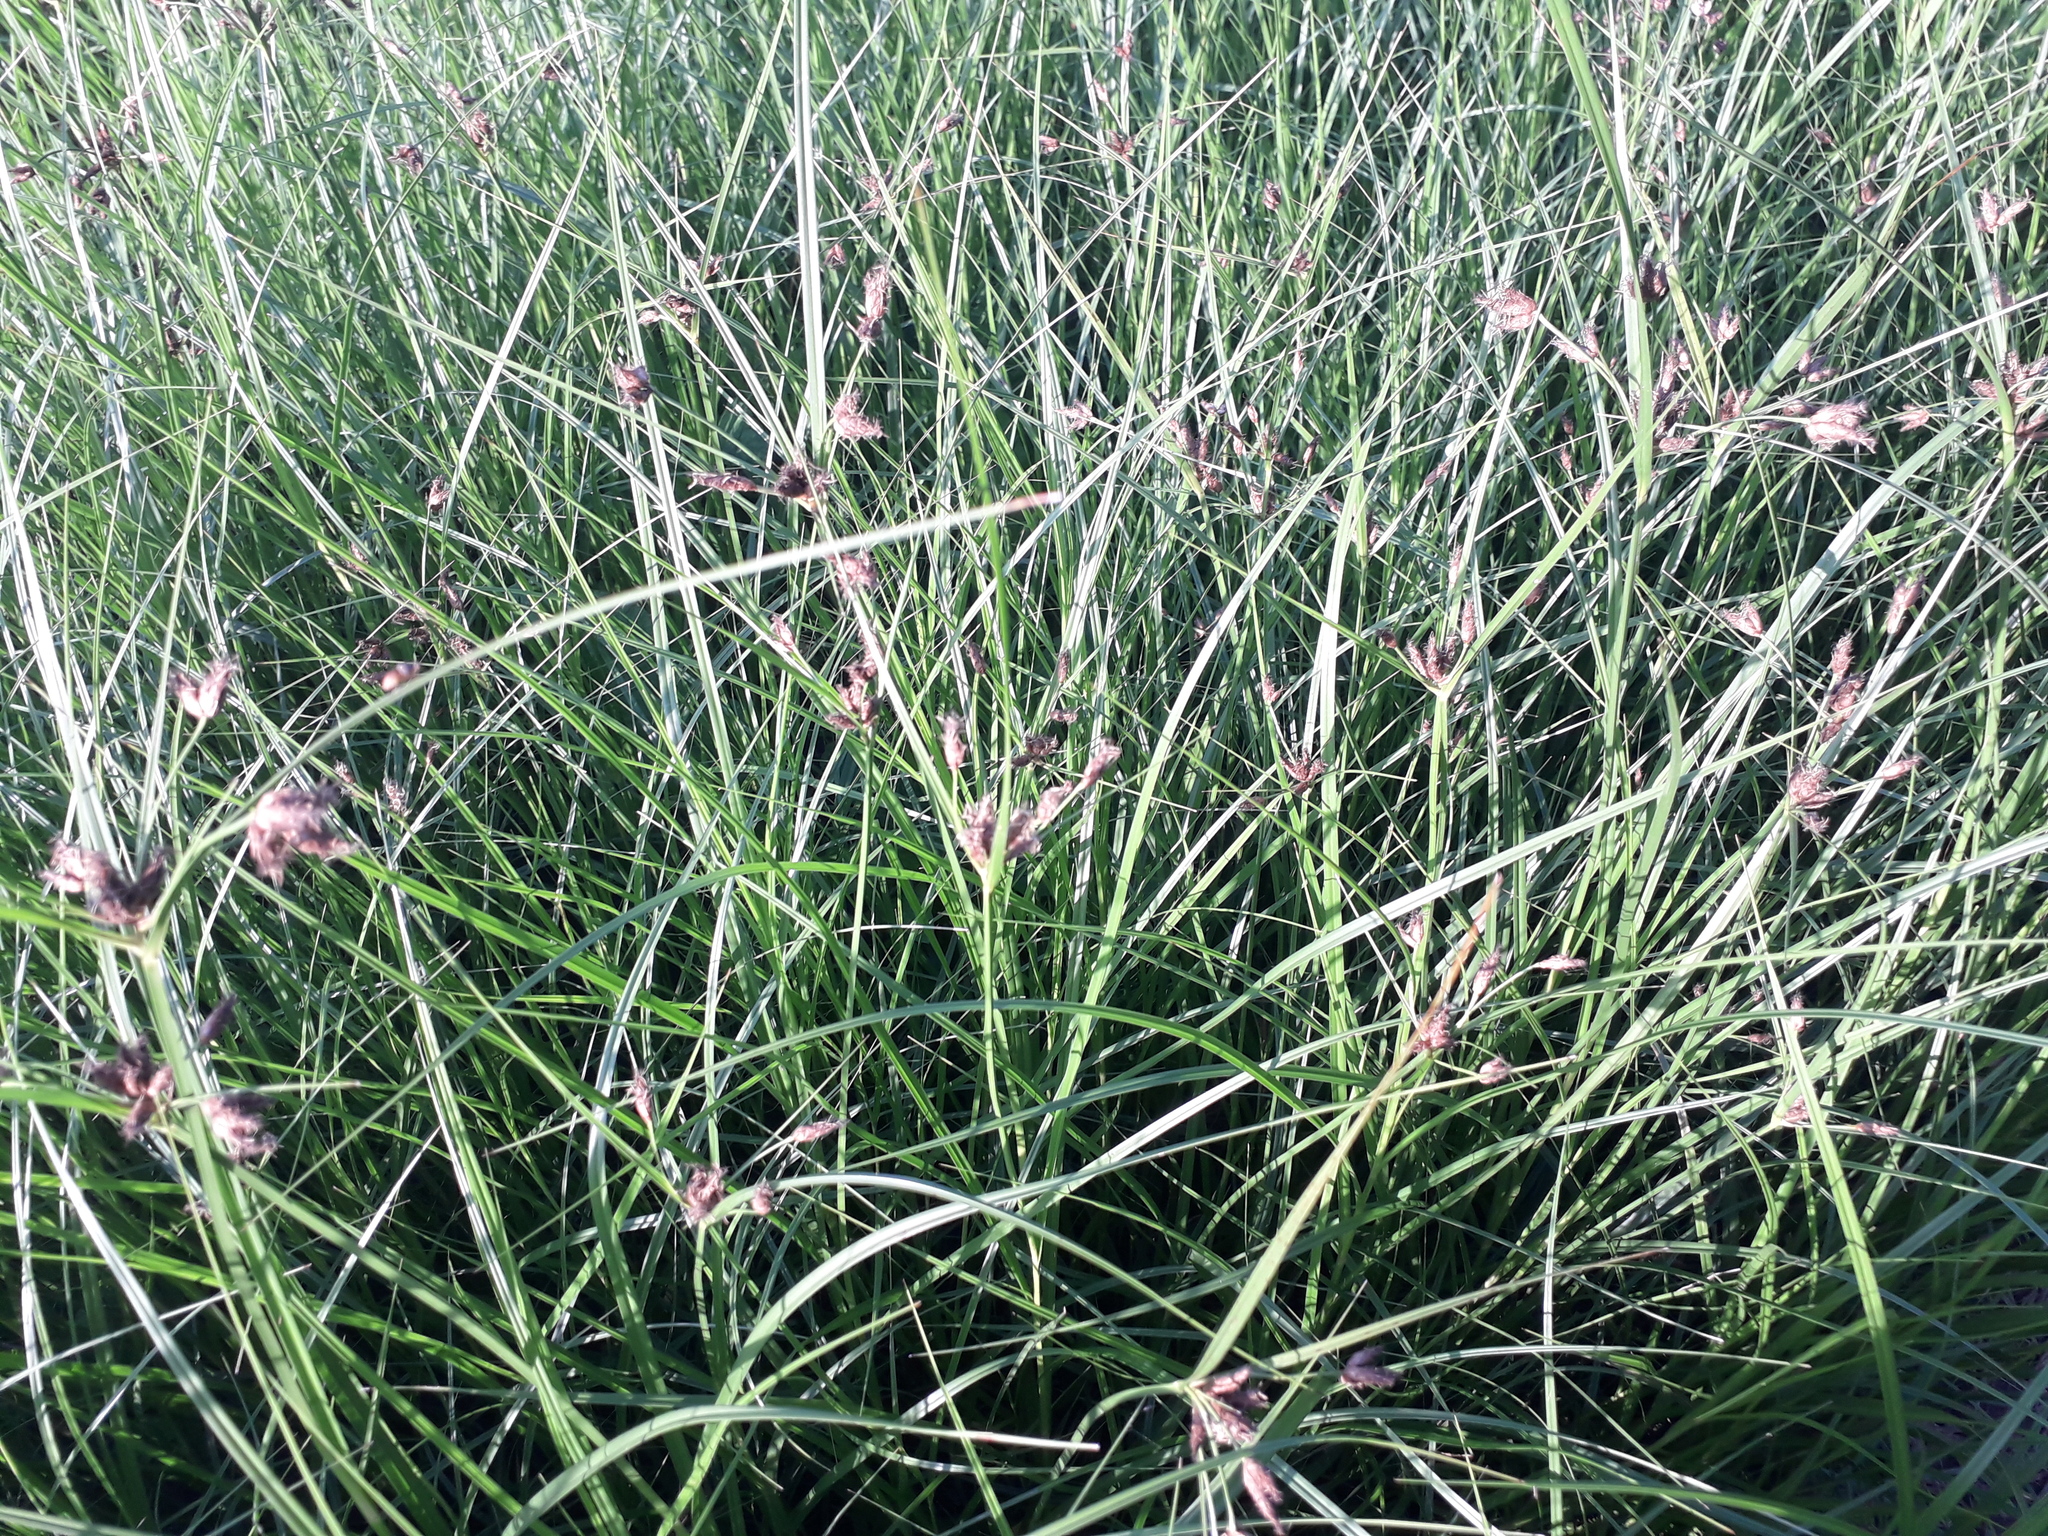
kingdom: Plantae
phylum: Tracheophyta
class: Liliopsida
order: Poales
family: Cyperaceae
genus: Bolboschoenus
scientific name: Bolboschoenus maritimus
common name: Sea club-rush
